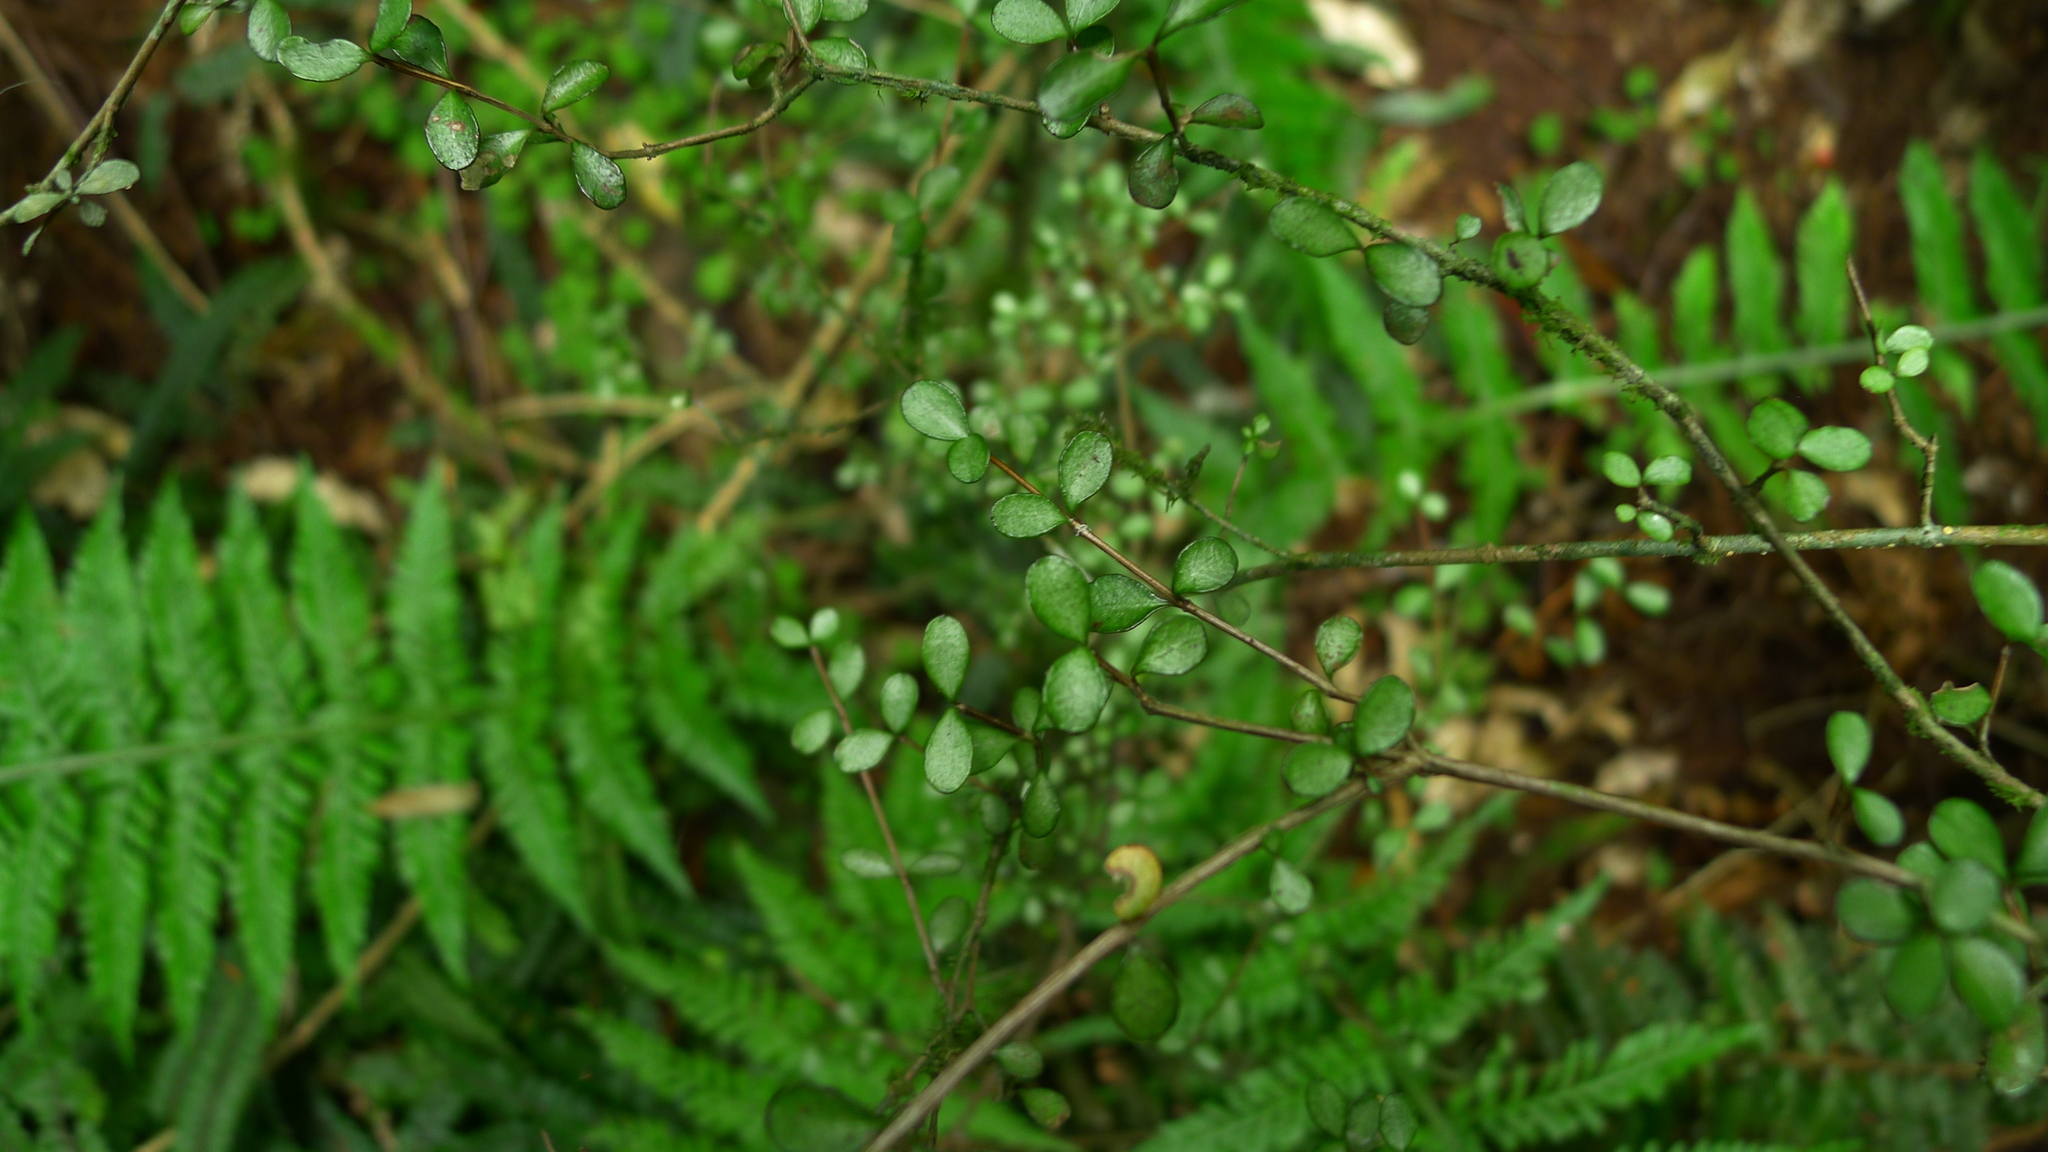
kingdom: Plantae
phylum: Tracheophyta
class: Magnoliopsida
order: Myrtales
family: Myrtaceae
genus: Neomyrtus
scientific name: Neomyrtus pedunculata
